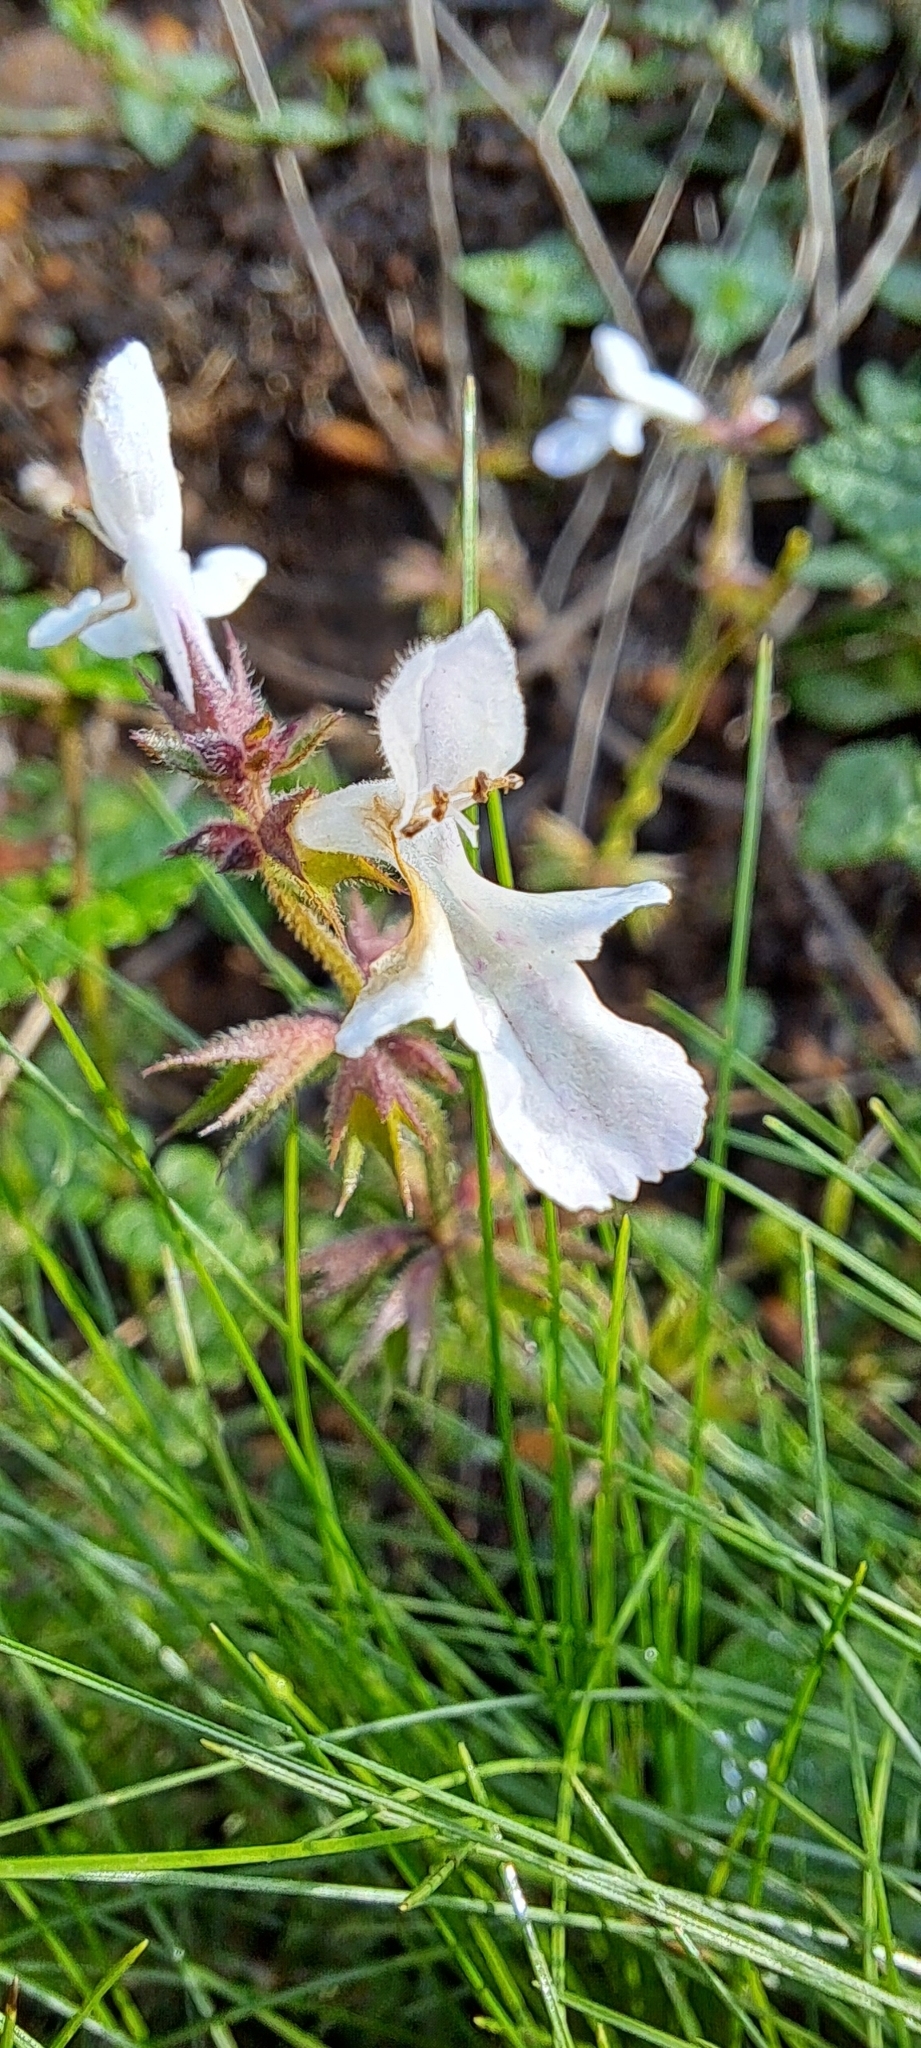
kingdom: Plantae
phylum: Tracheophyta
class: Magnoliopsida
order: Lamiales
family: Lamiaceae
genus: Stachys
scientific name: Stachys aethiopica
